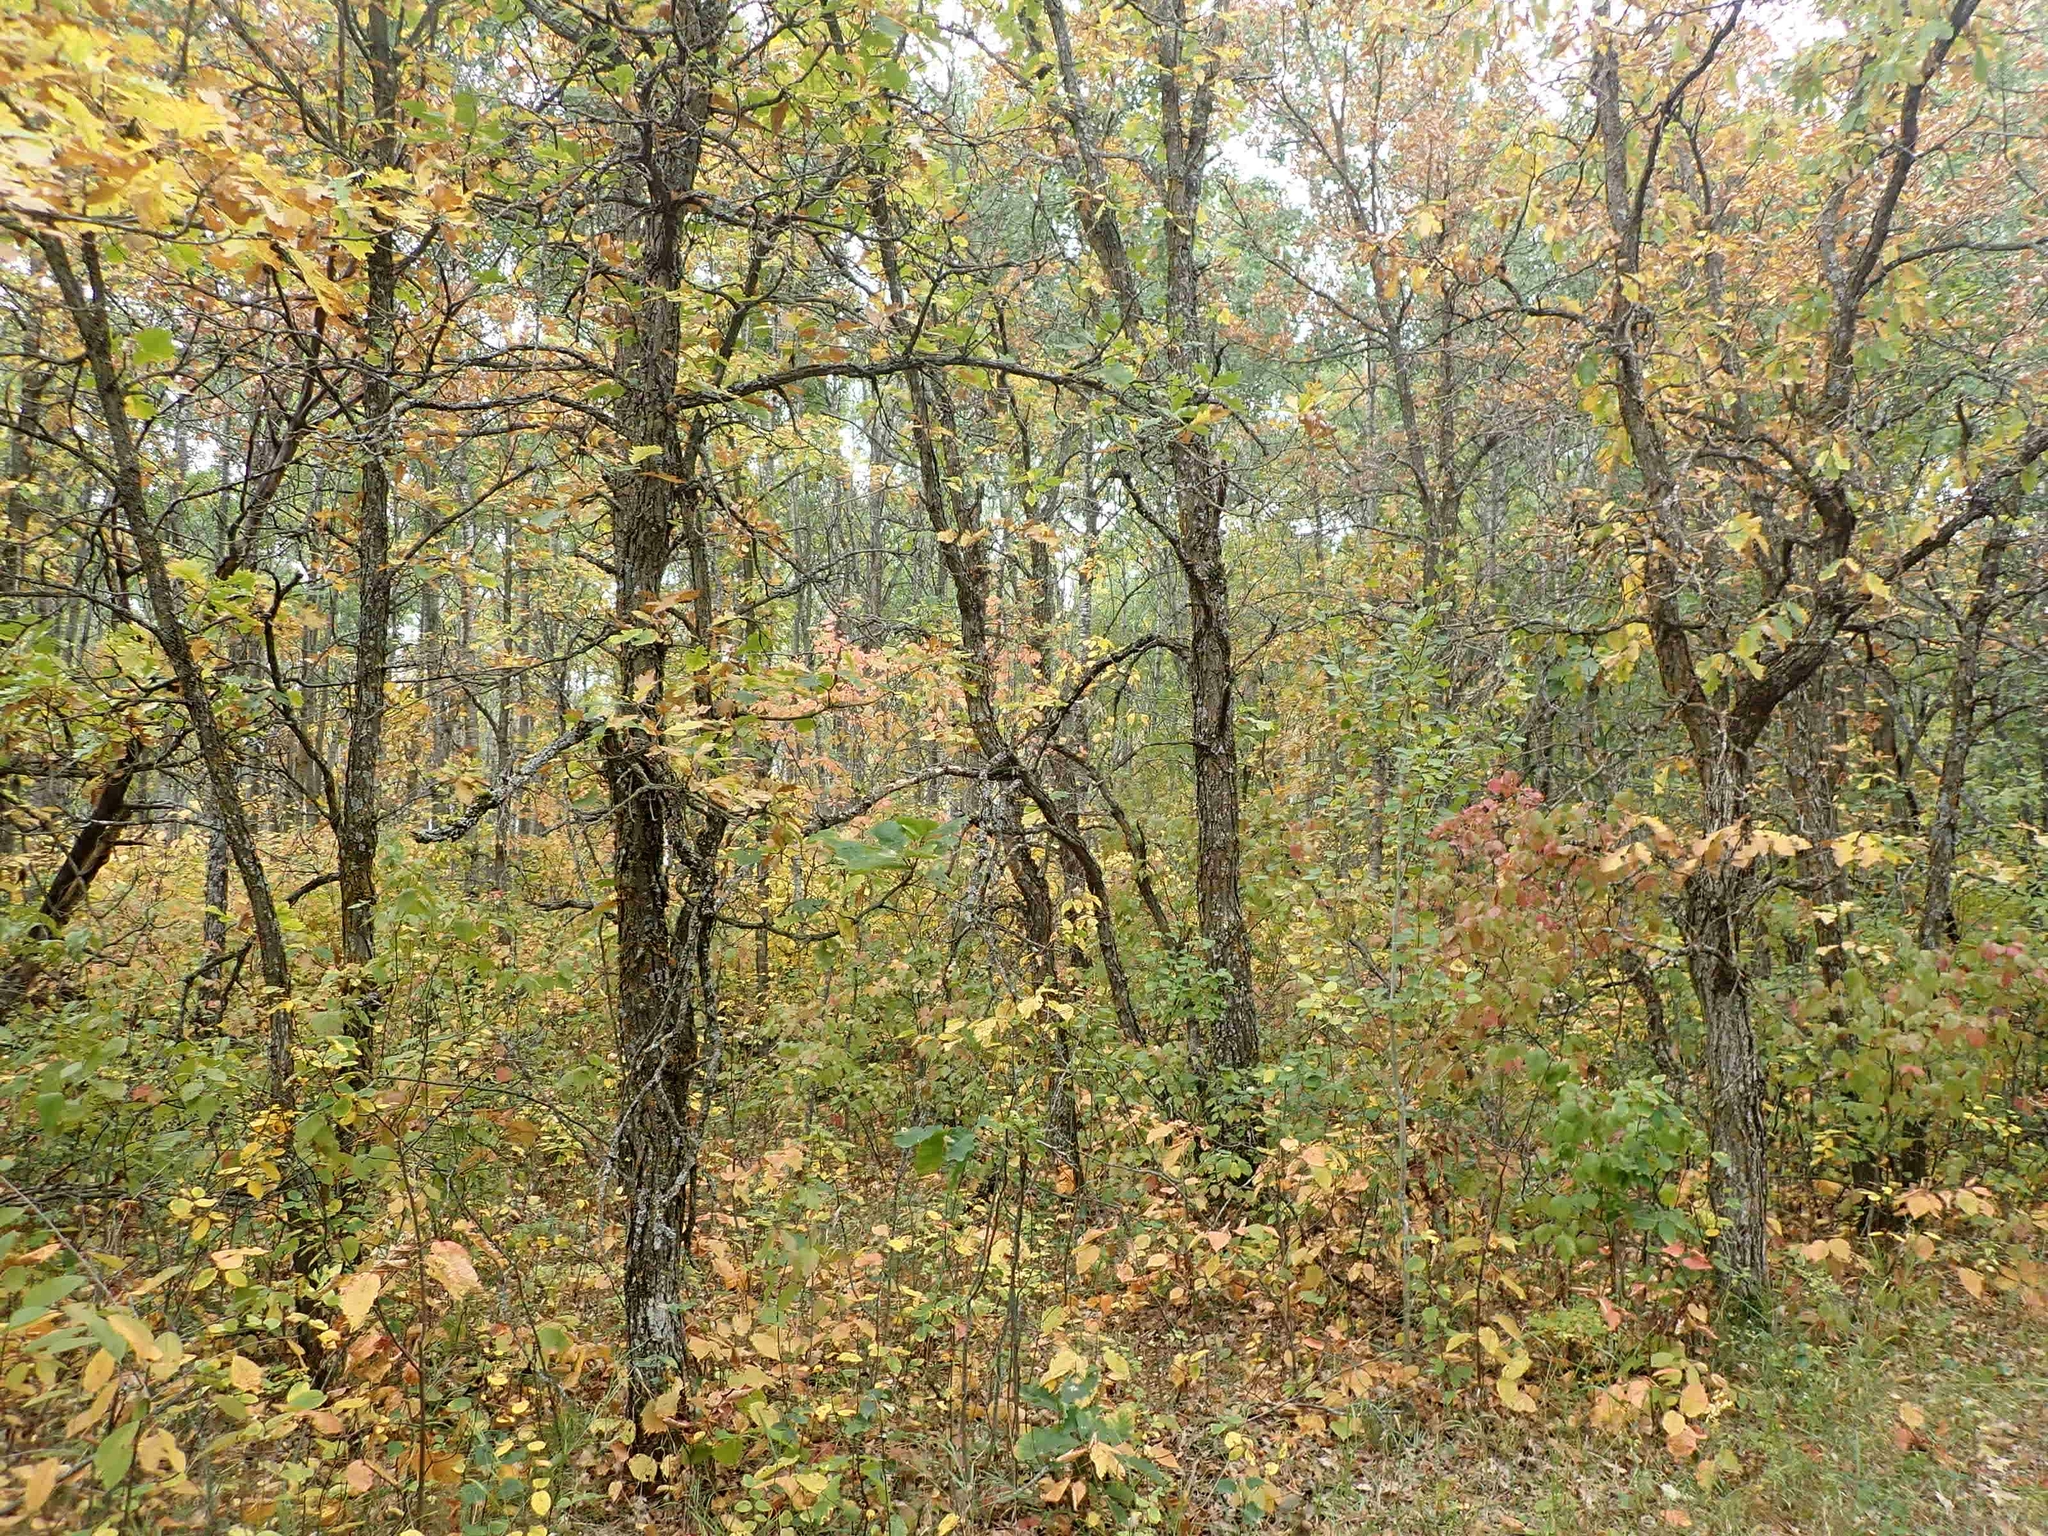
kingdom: Plantae
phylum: Tracheophyta
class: Magnoliopsida
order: Fagales
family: Fagaceae
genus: Quercus
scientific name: Quercus macrocarpa
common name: Bur oak
